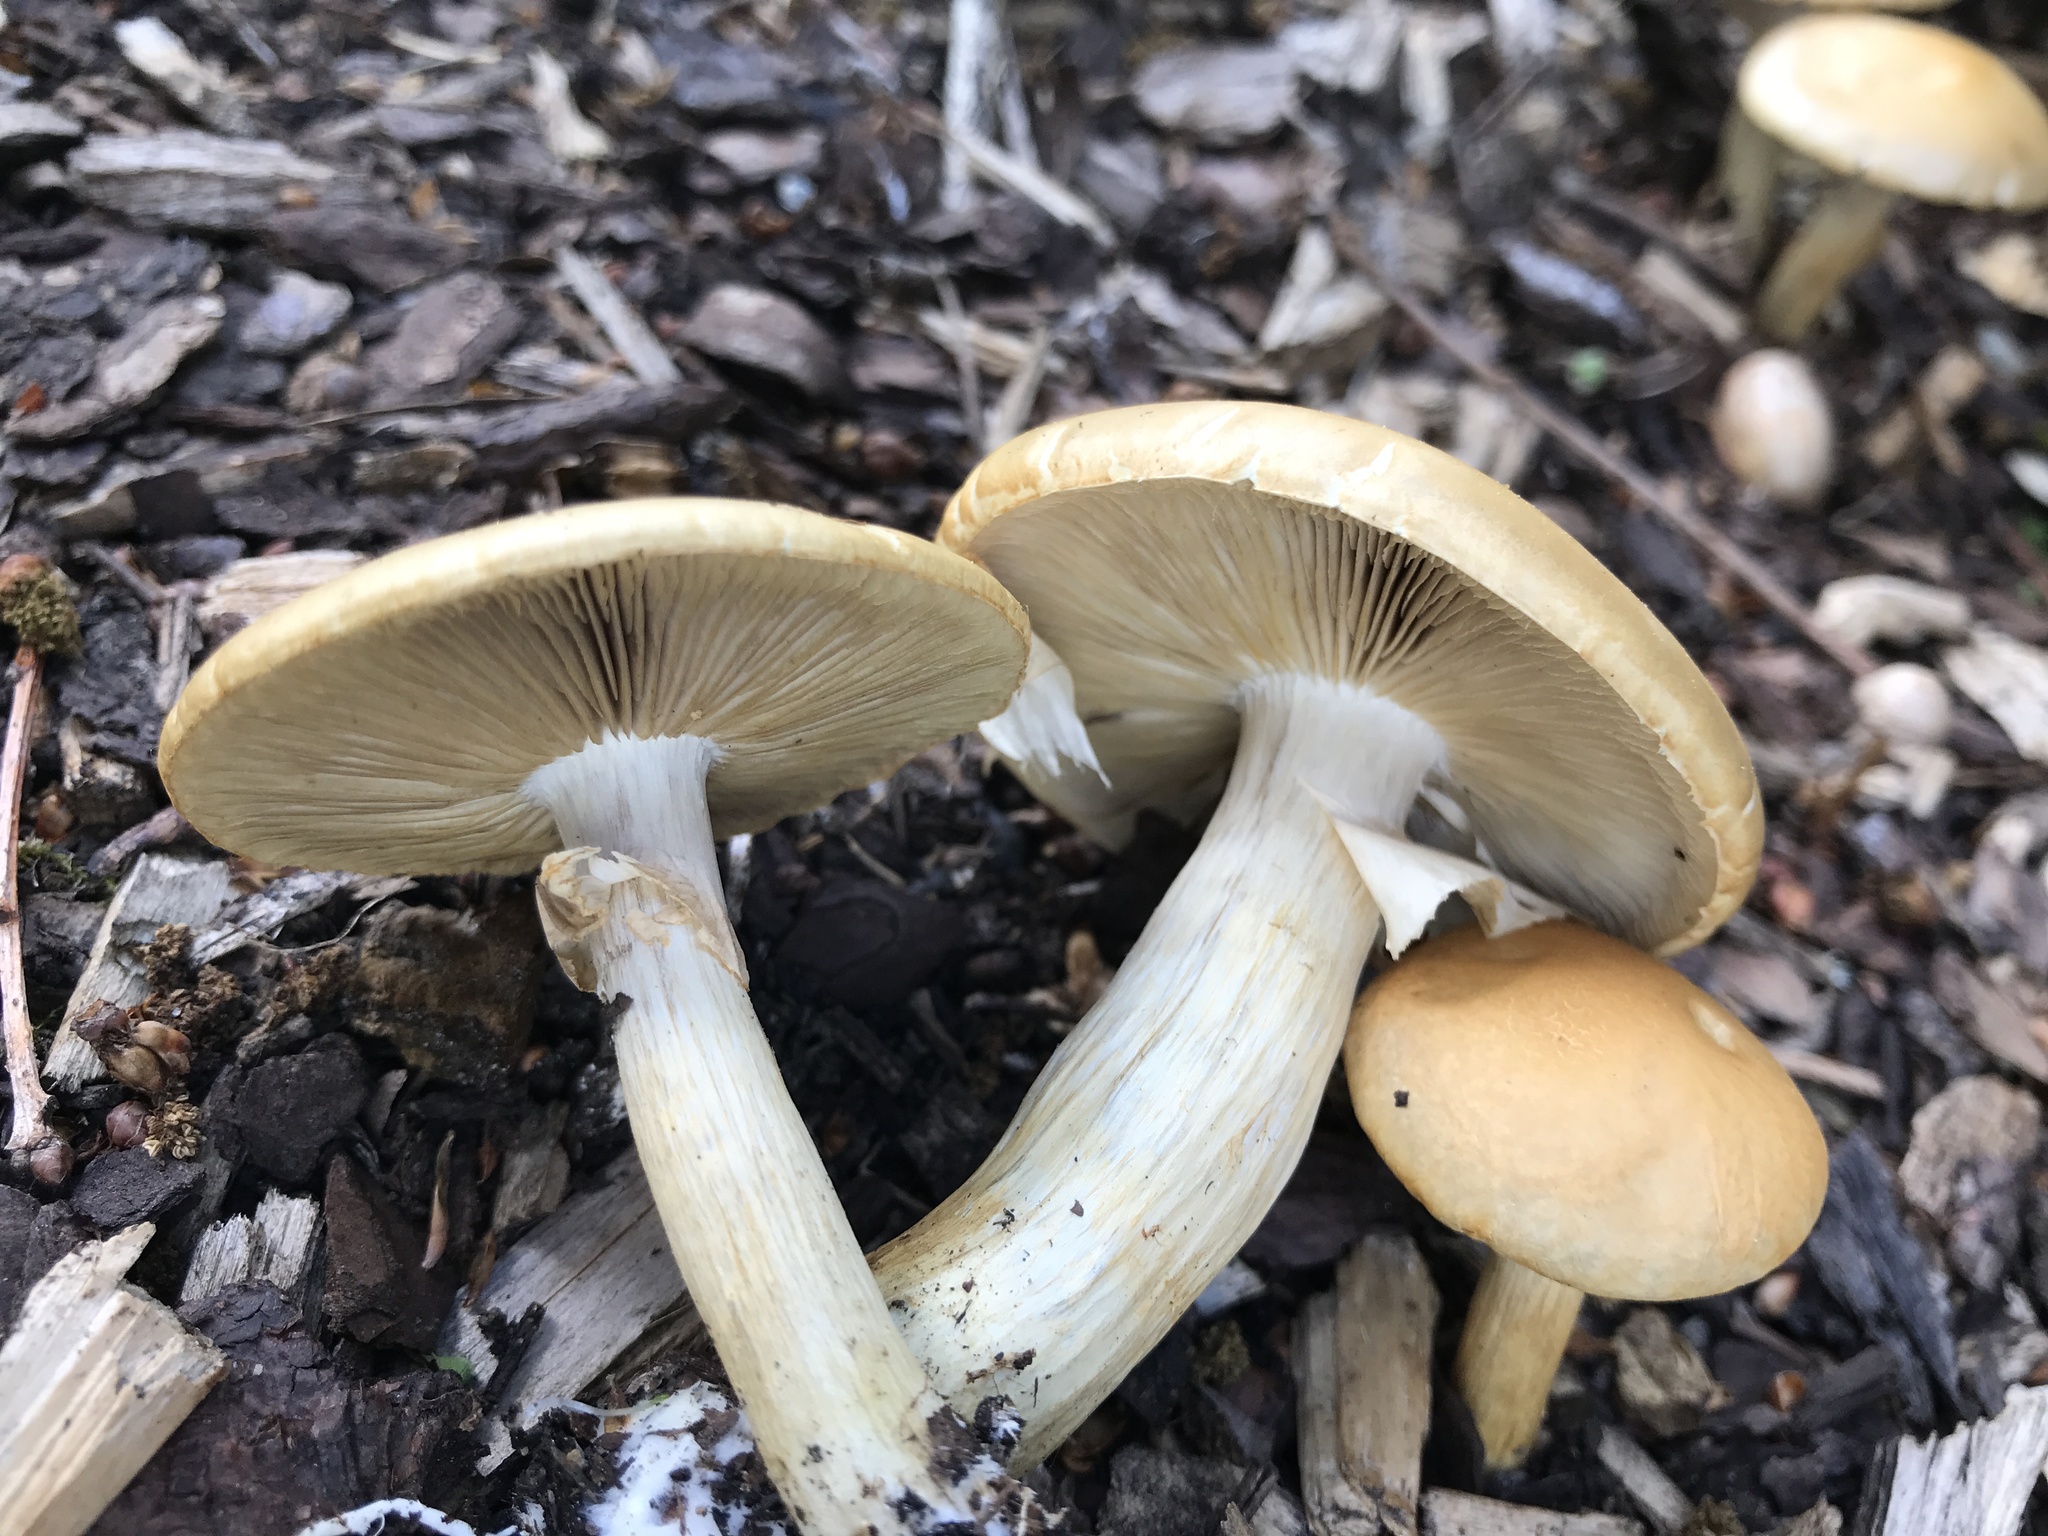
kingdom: Fungi
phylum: Basidiomycota
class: Agaricomycetes
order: Agaricales
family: Strophariaceae
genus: Agrocybe
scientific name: Agrocybe praecox
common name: Spring fieldcap
